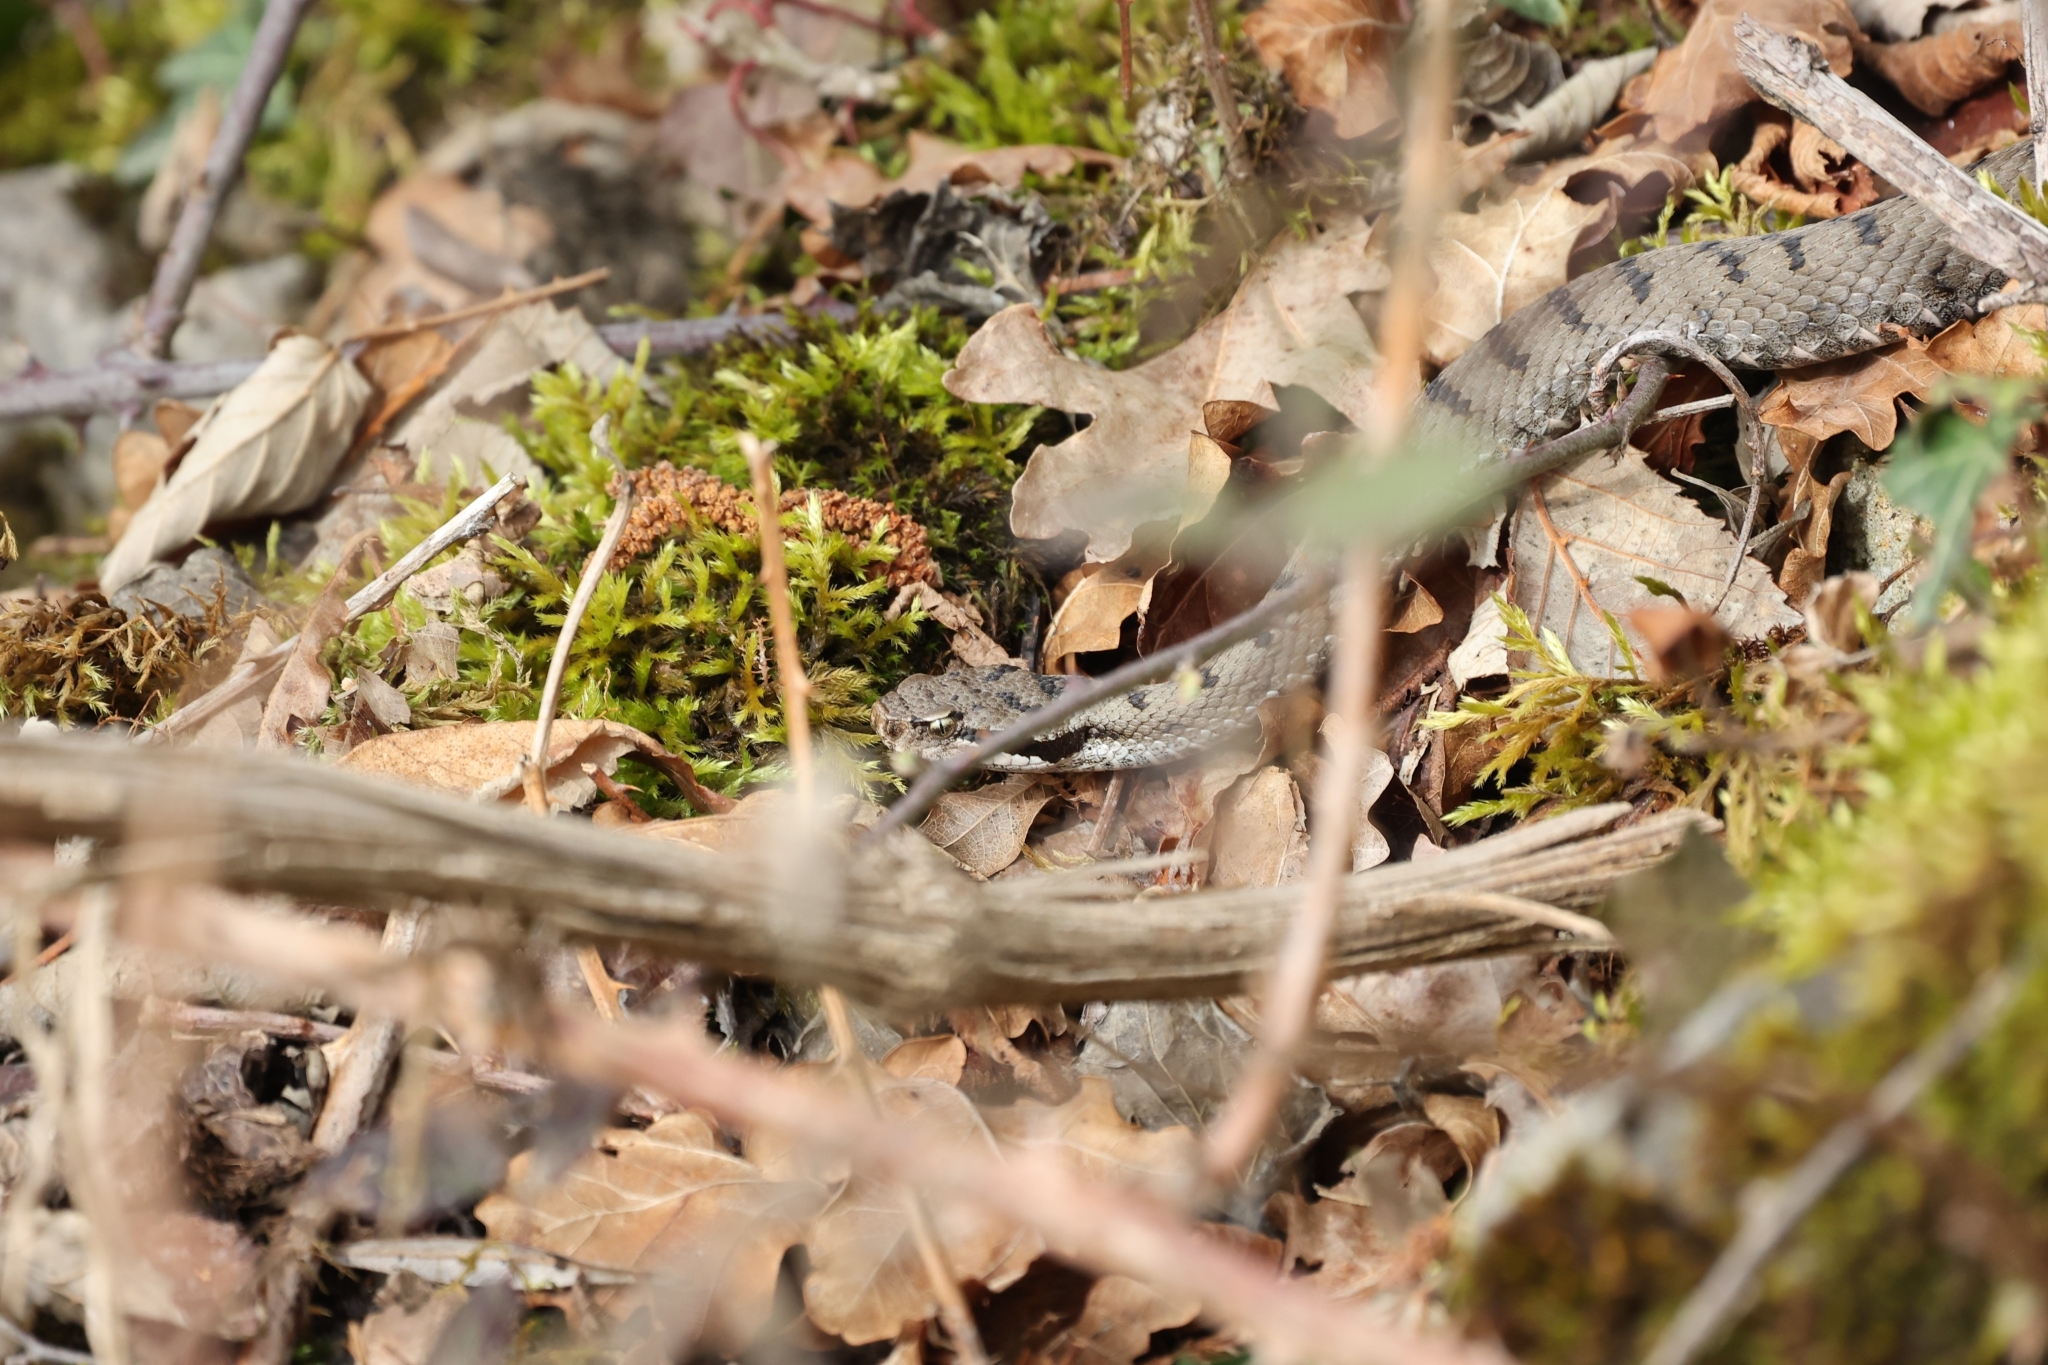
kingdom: Animalia
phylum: Chordata
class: Squamata
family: Viperidae
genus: Vipera
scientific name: Vipera aspis
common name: Asp viper
